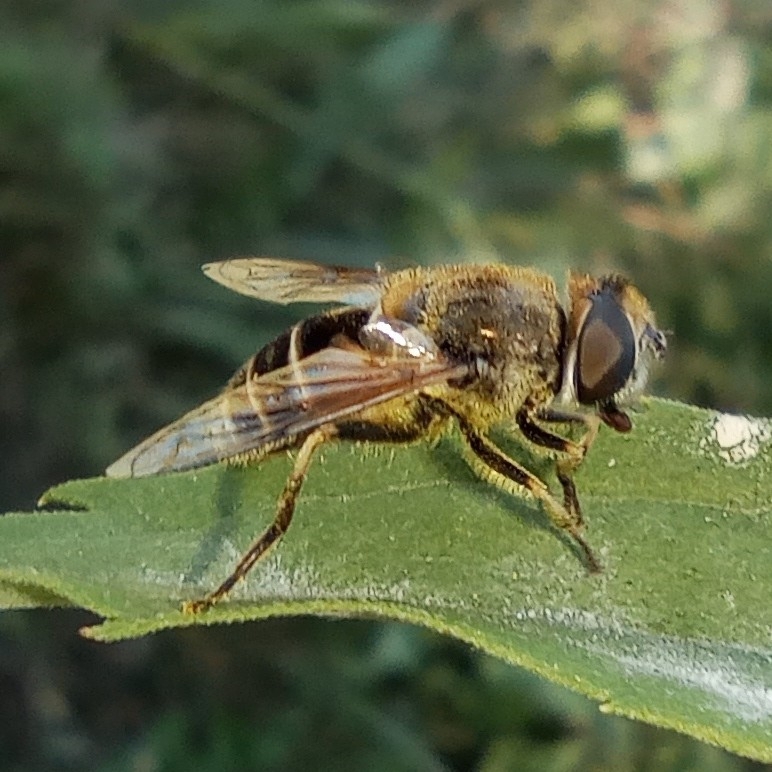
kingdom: Animalia
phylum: Arthropoda
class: Insecta
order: Diptera
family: Syrphidae
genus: Eristalis
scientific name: Eristalis arbustorum
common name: Hover fly
